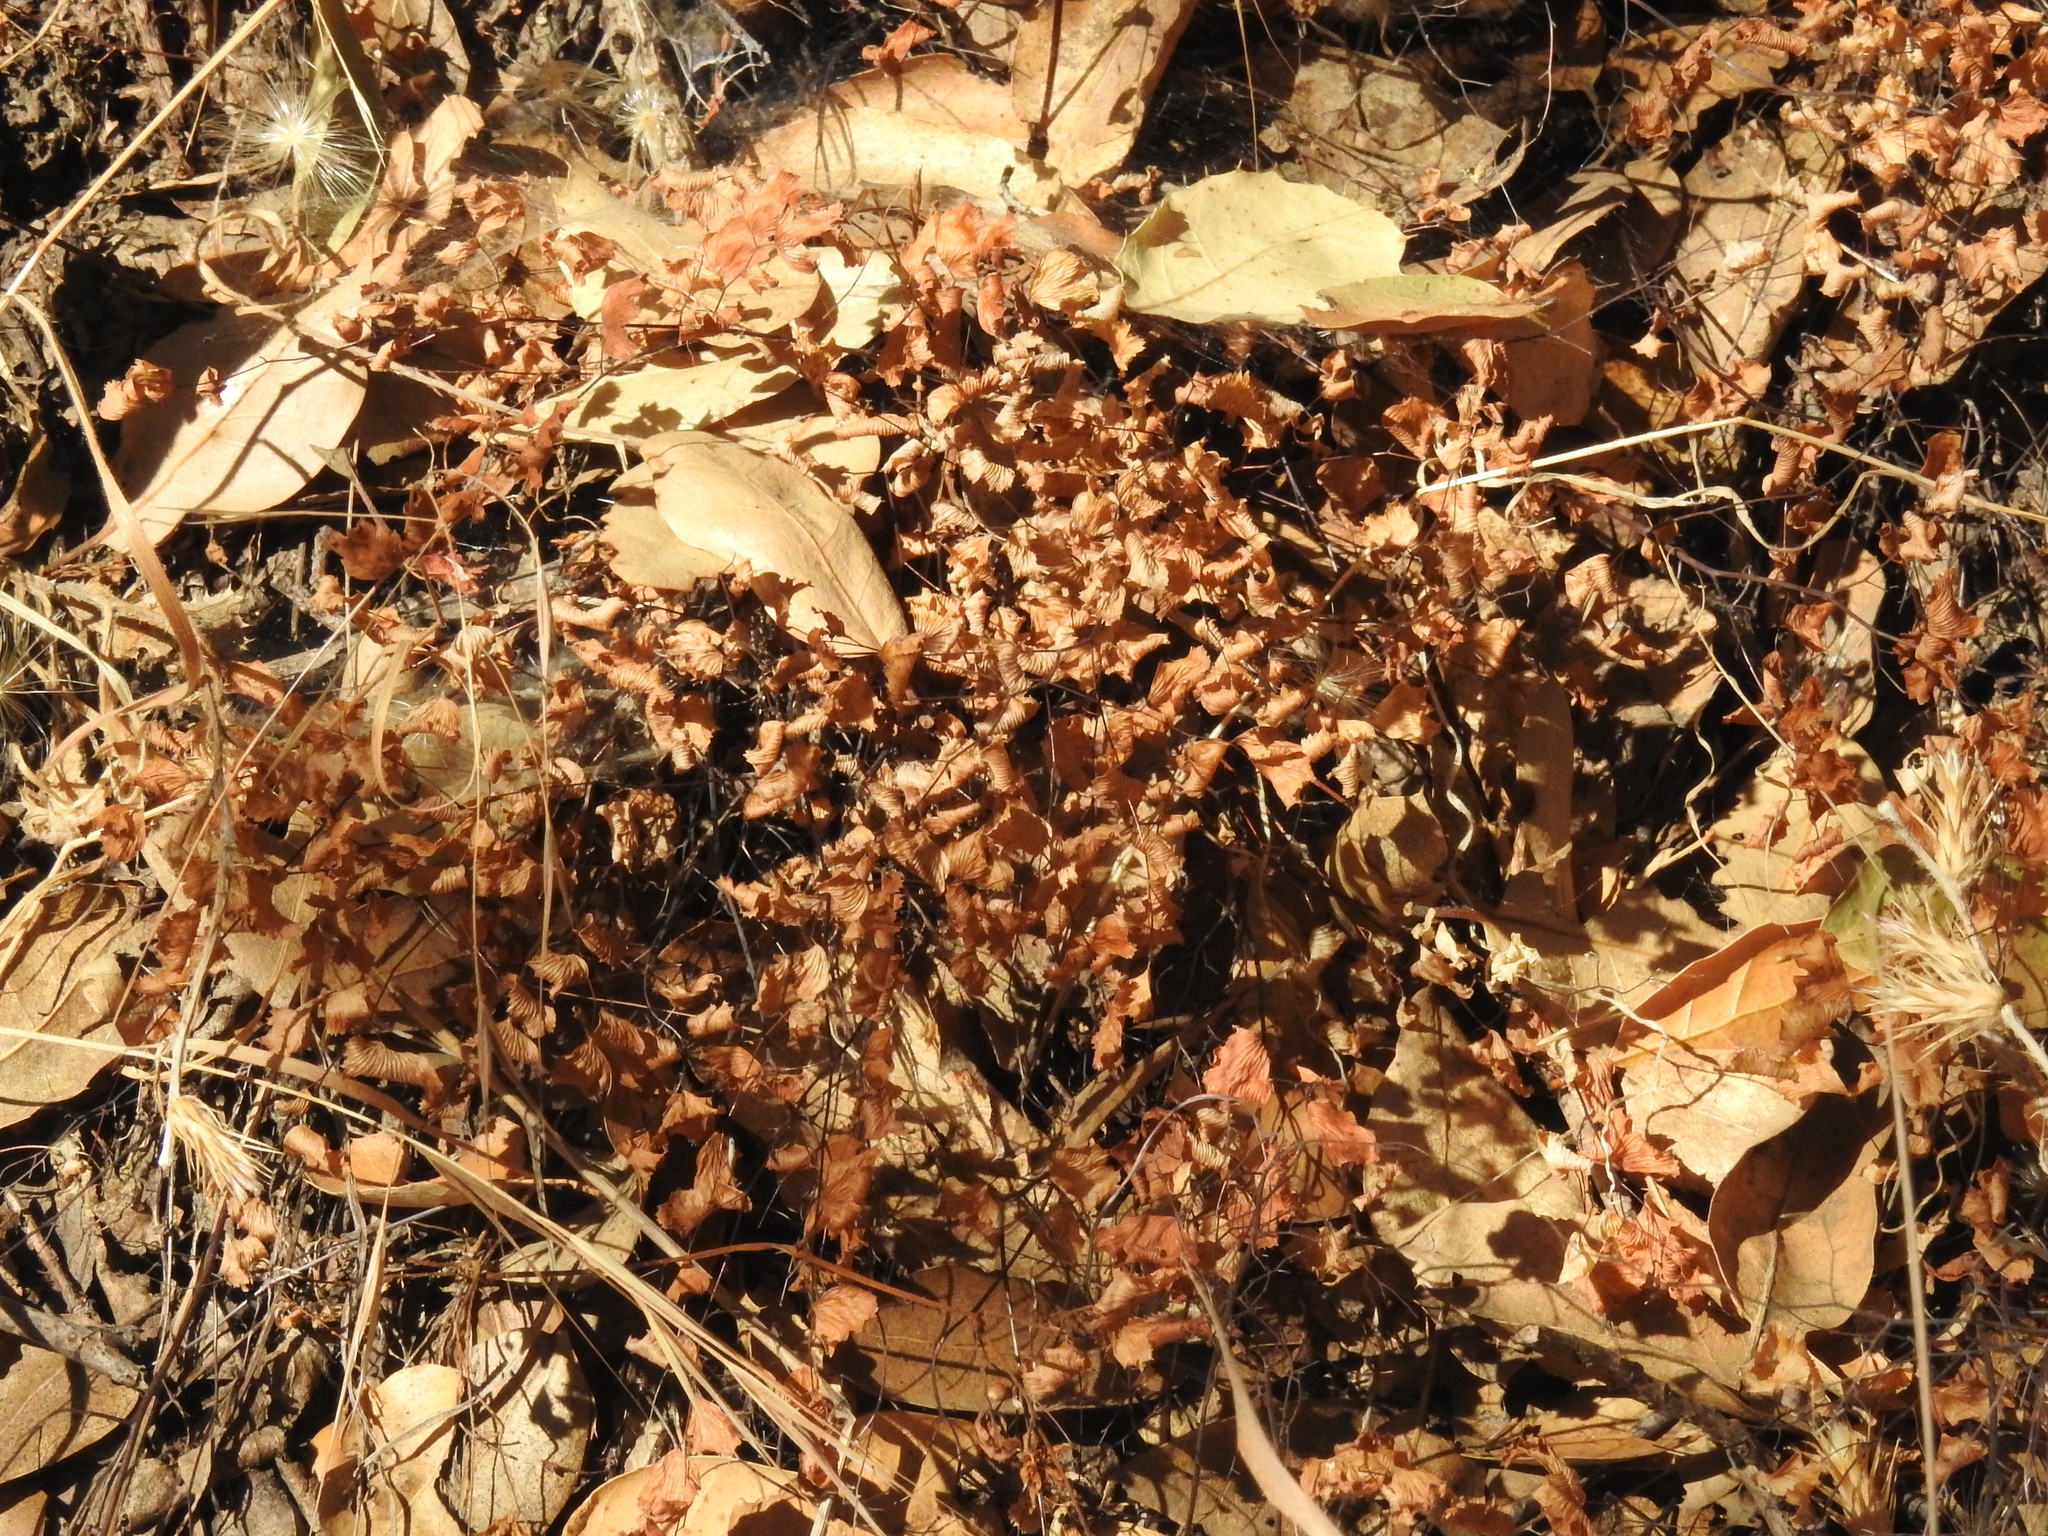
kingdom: Plantae
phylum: Tracheophyta
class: Polypodiopsida
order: Polypodiales
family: Pteridaceae
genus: Adiantum
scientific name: Adiantum jordanii
